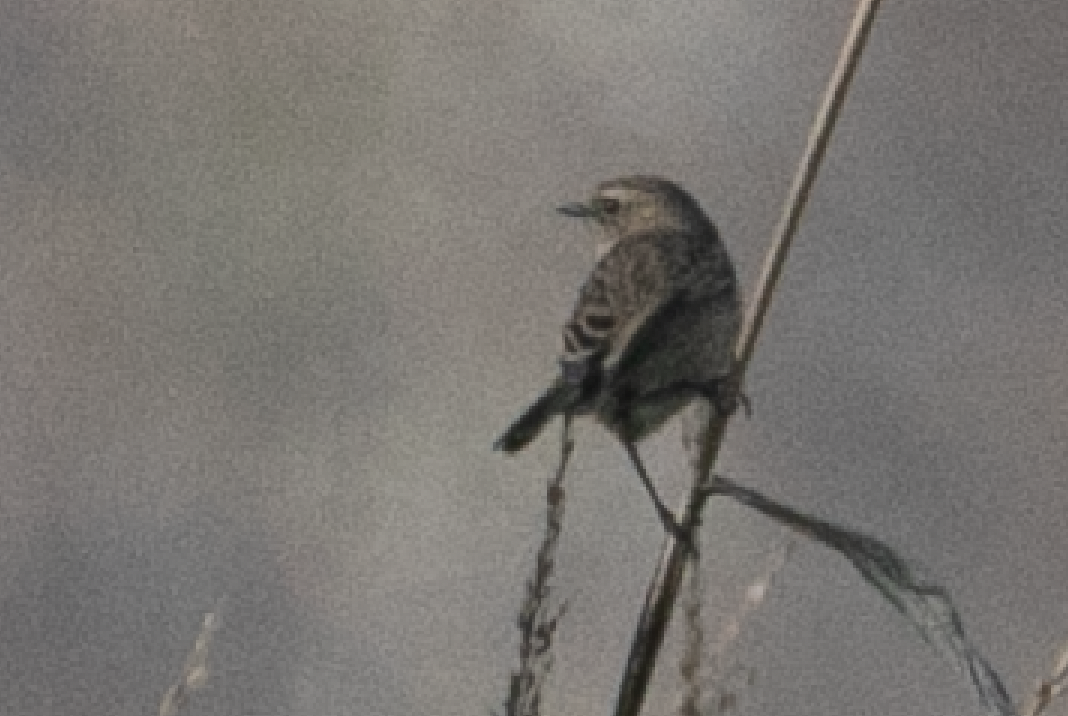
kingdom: Animalia
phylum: Chordata
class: Aves
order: Passeriformes
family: Muscicapidae
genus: Saxicola
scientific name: Saxicola rubicola
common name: European stonechat
